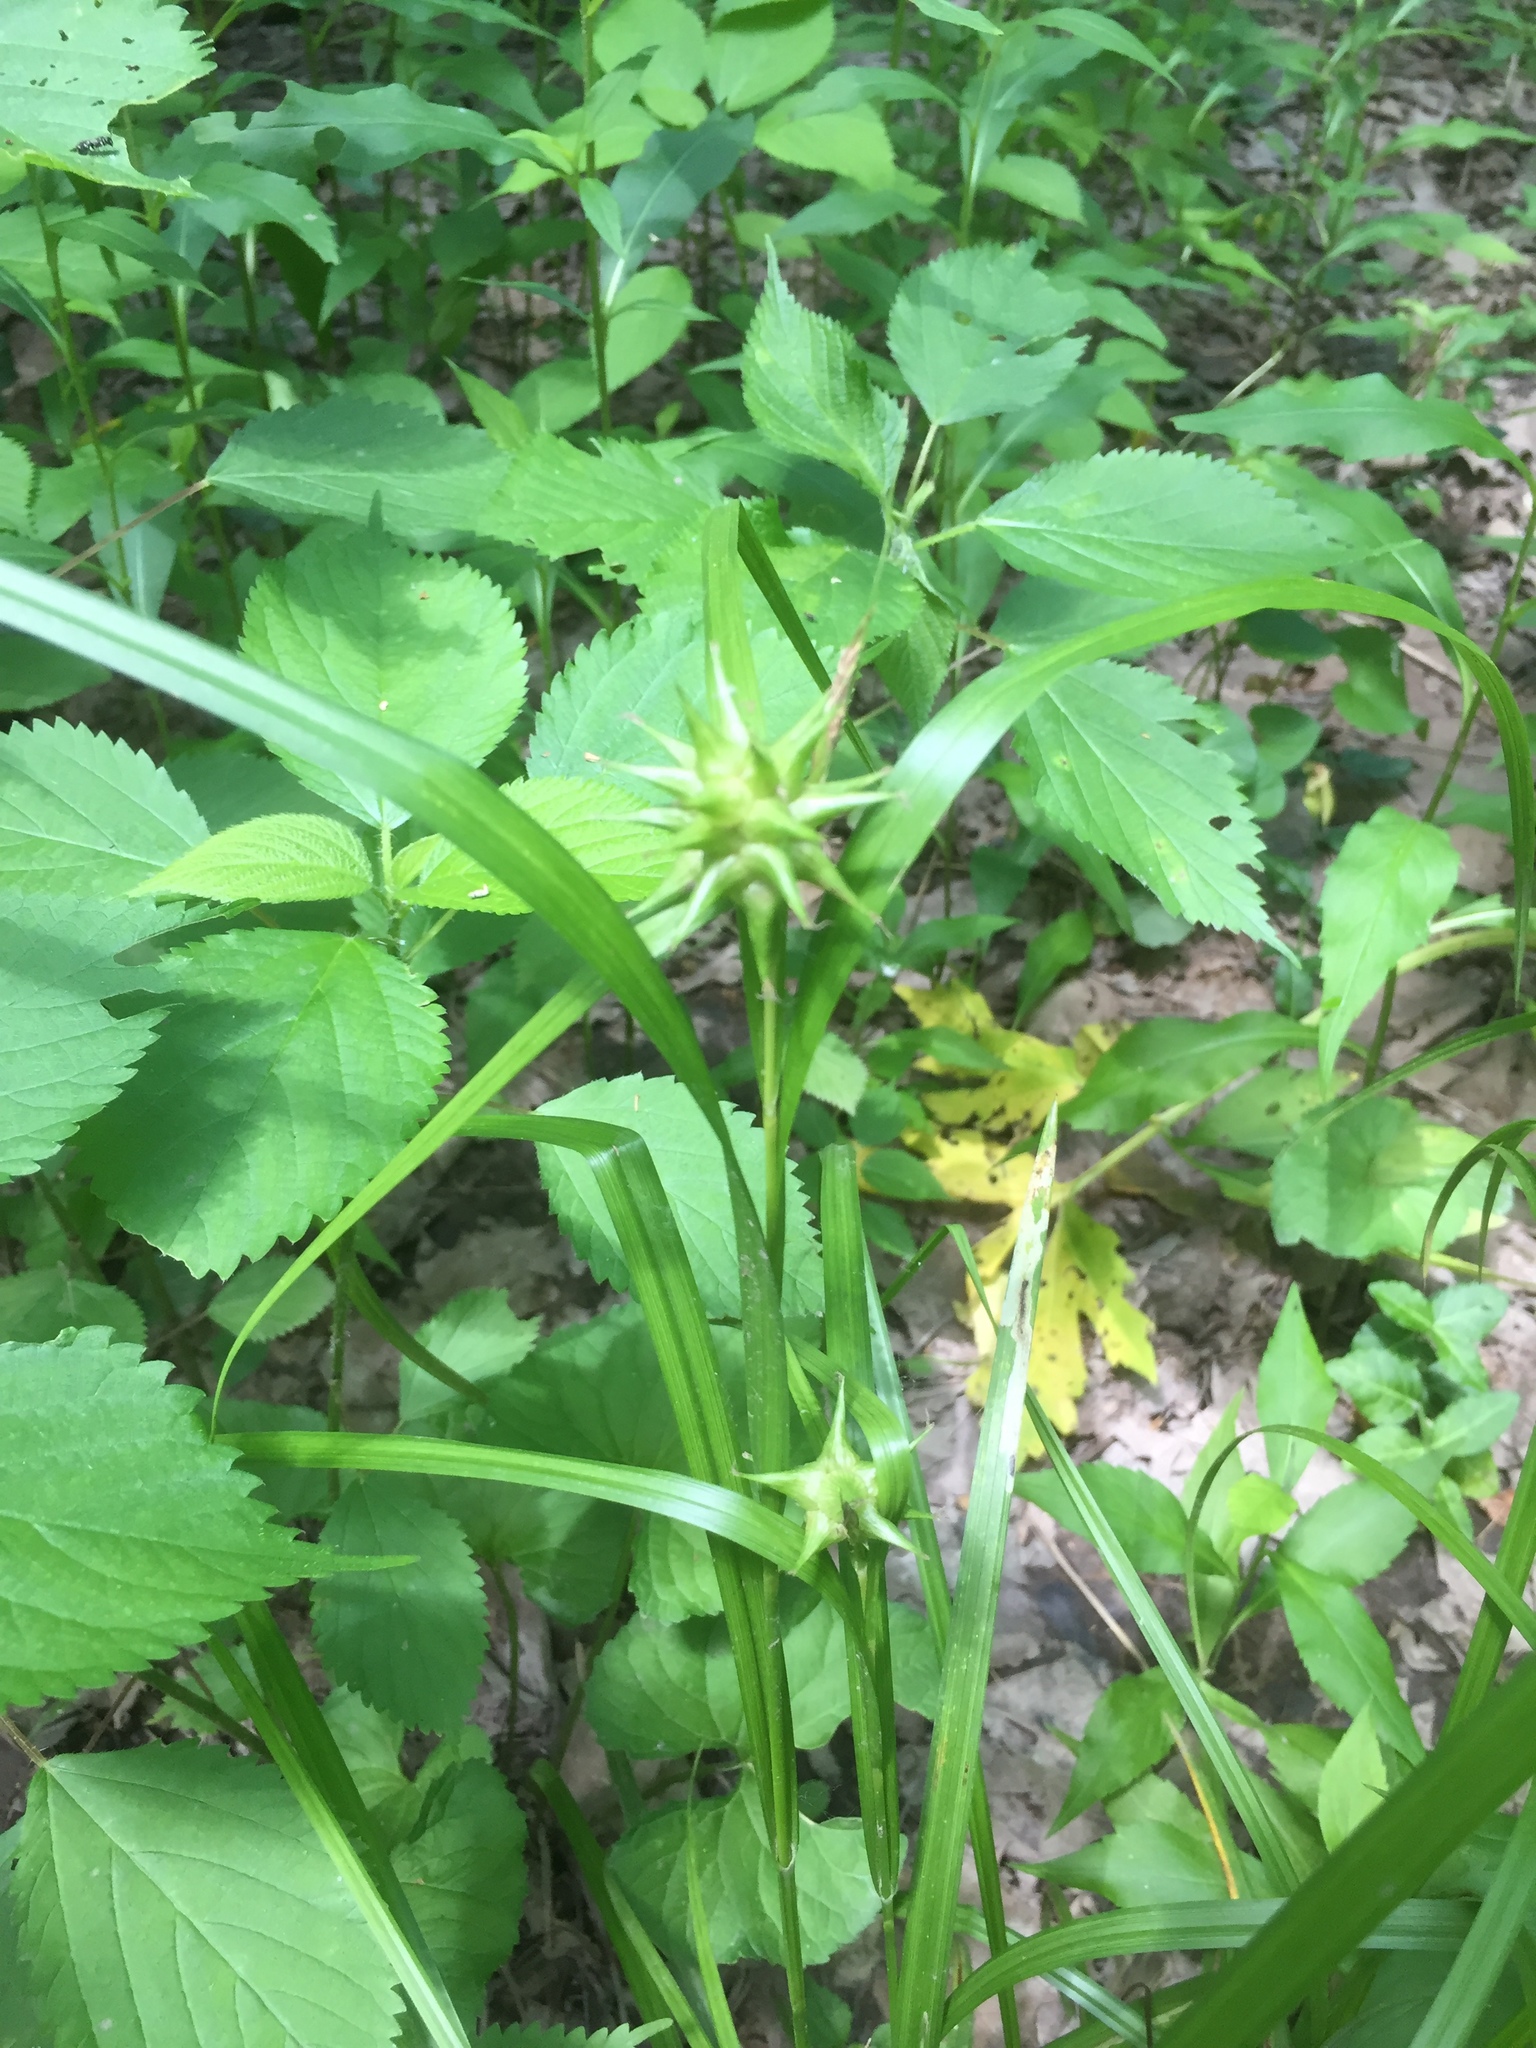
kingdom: Plantae
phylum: Tracheophyta
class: Liliopsida
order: Poales
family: Cyperaceae
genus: Carex
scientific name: Carex grayi
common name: Asa gray's sedge
